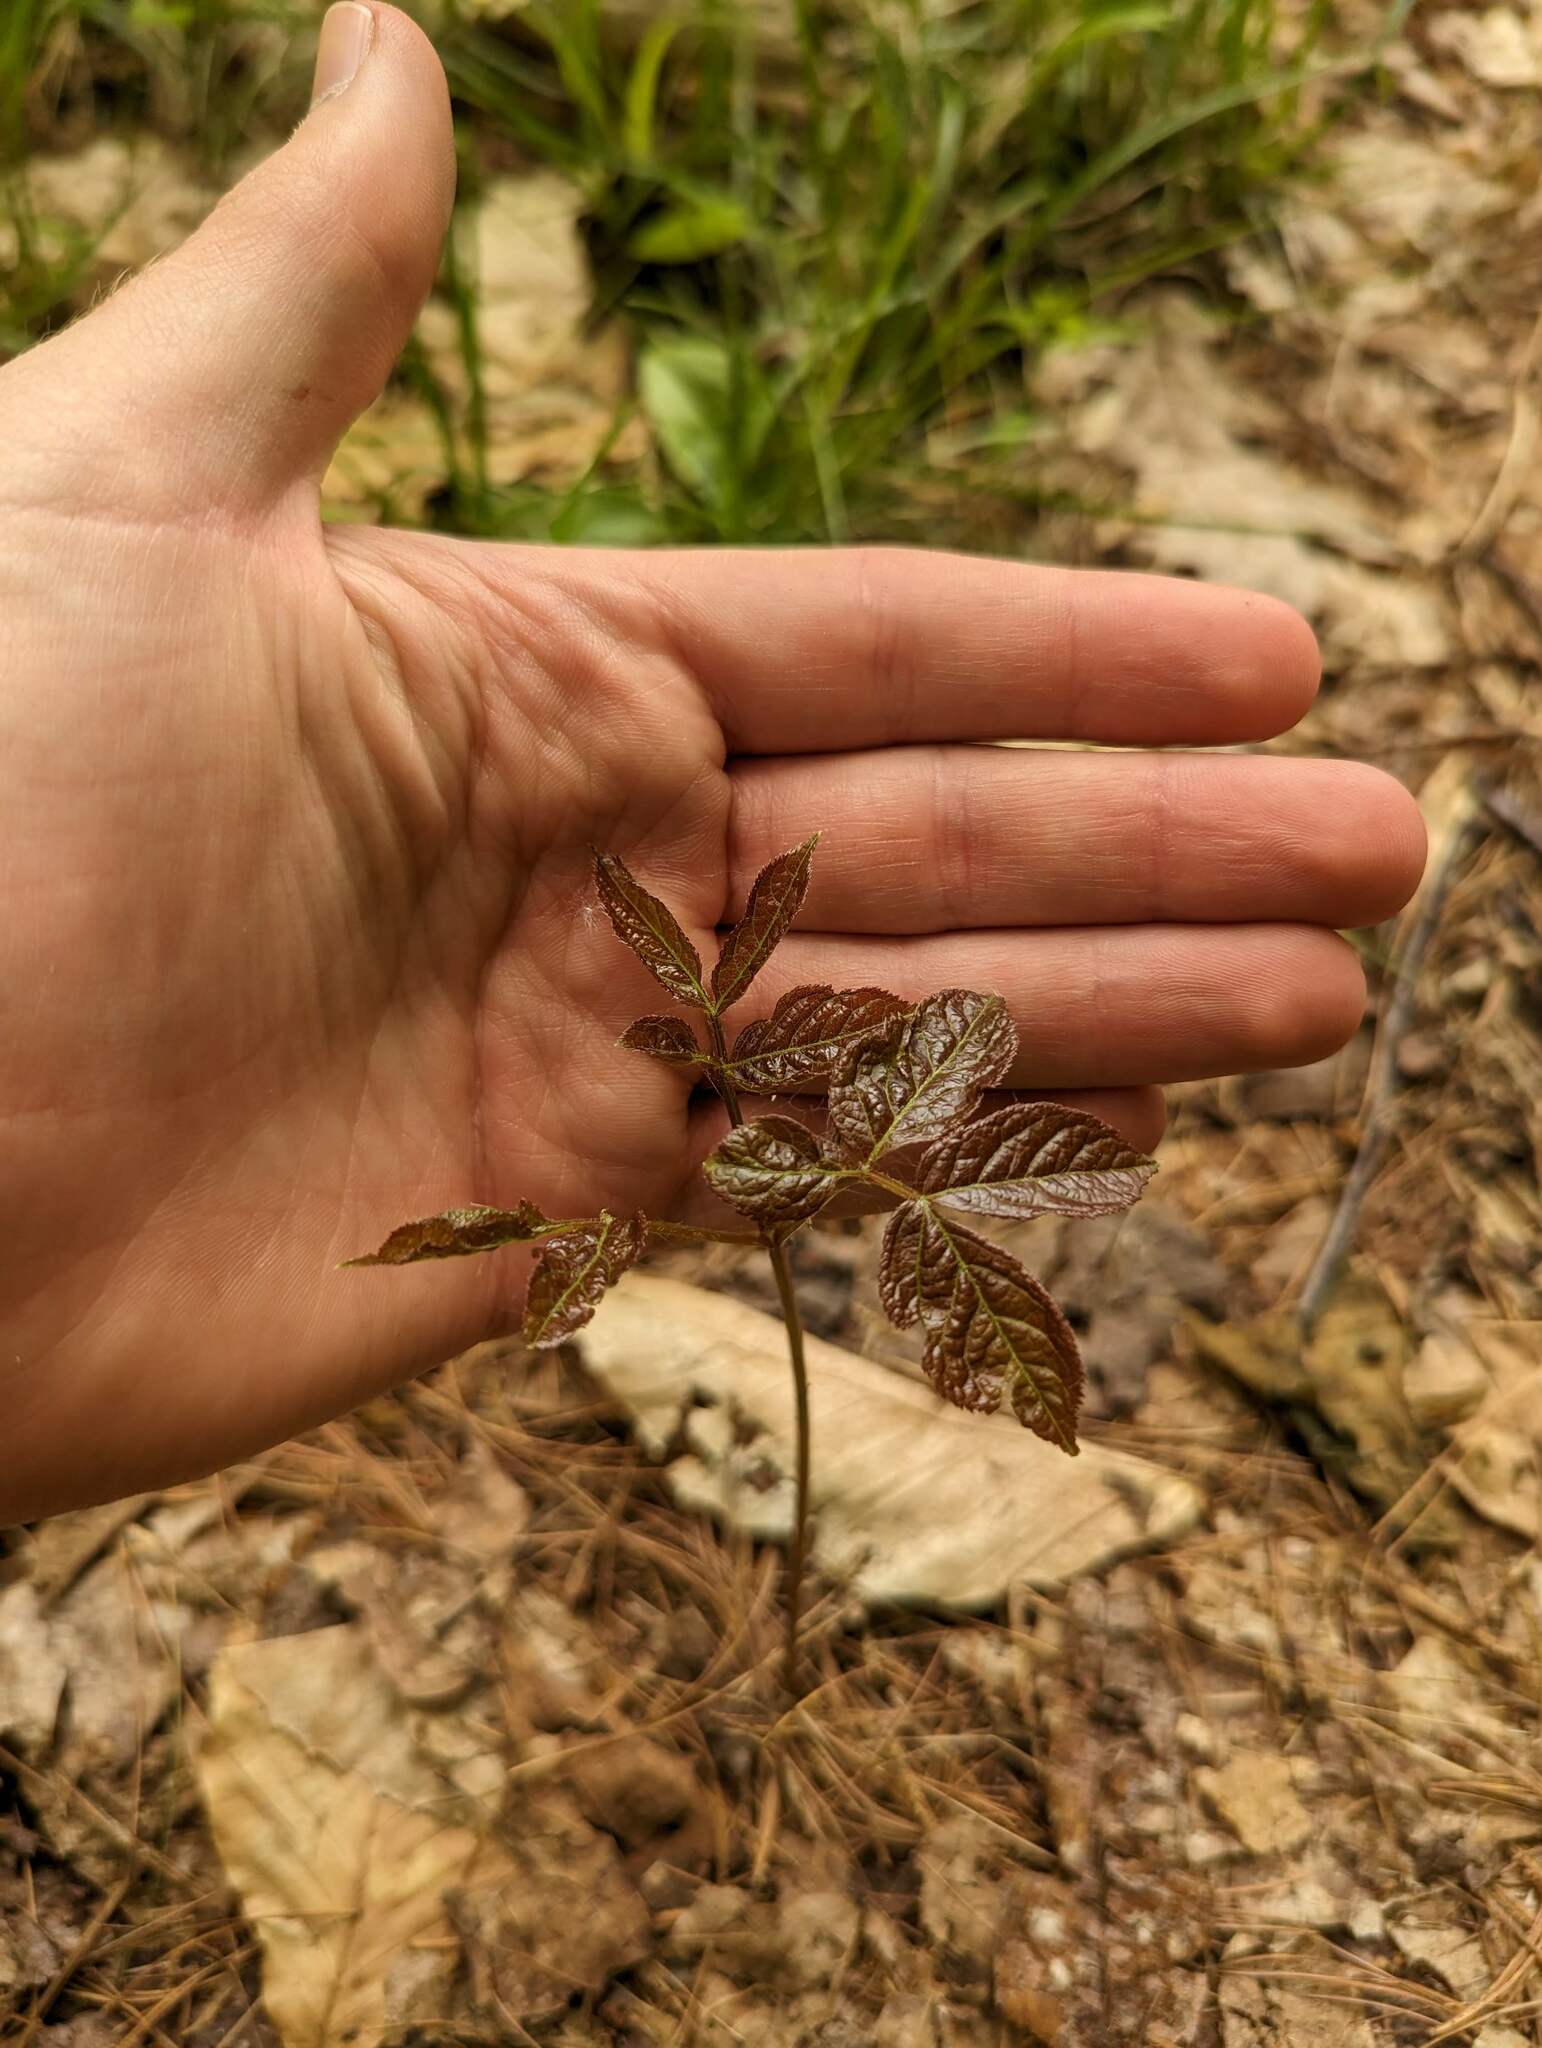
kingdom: Plantae
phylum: Tracheophyta
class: Magnoliopsida
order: Apiales
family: Araliaceae
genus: Aralia
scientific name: Aralia nudicaulis
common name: Wild sarsaparilla
